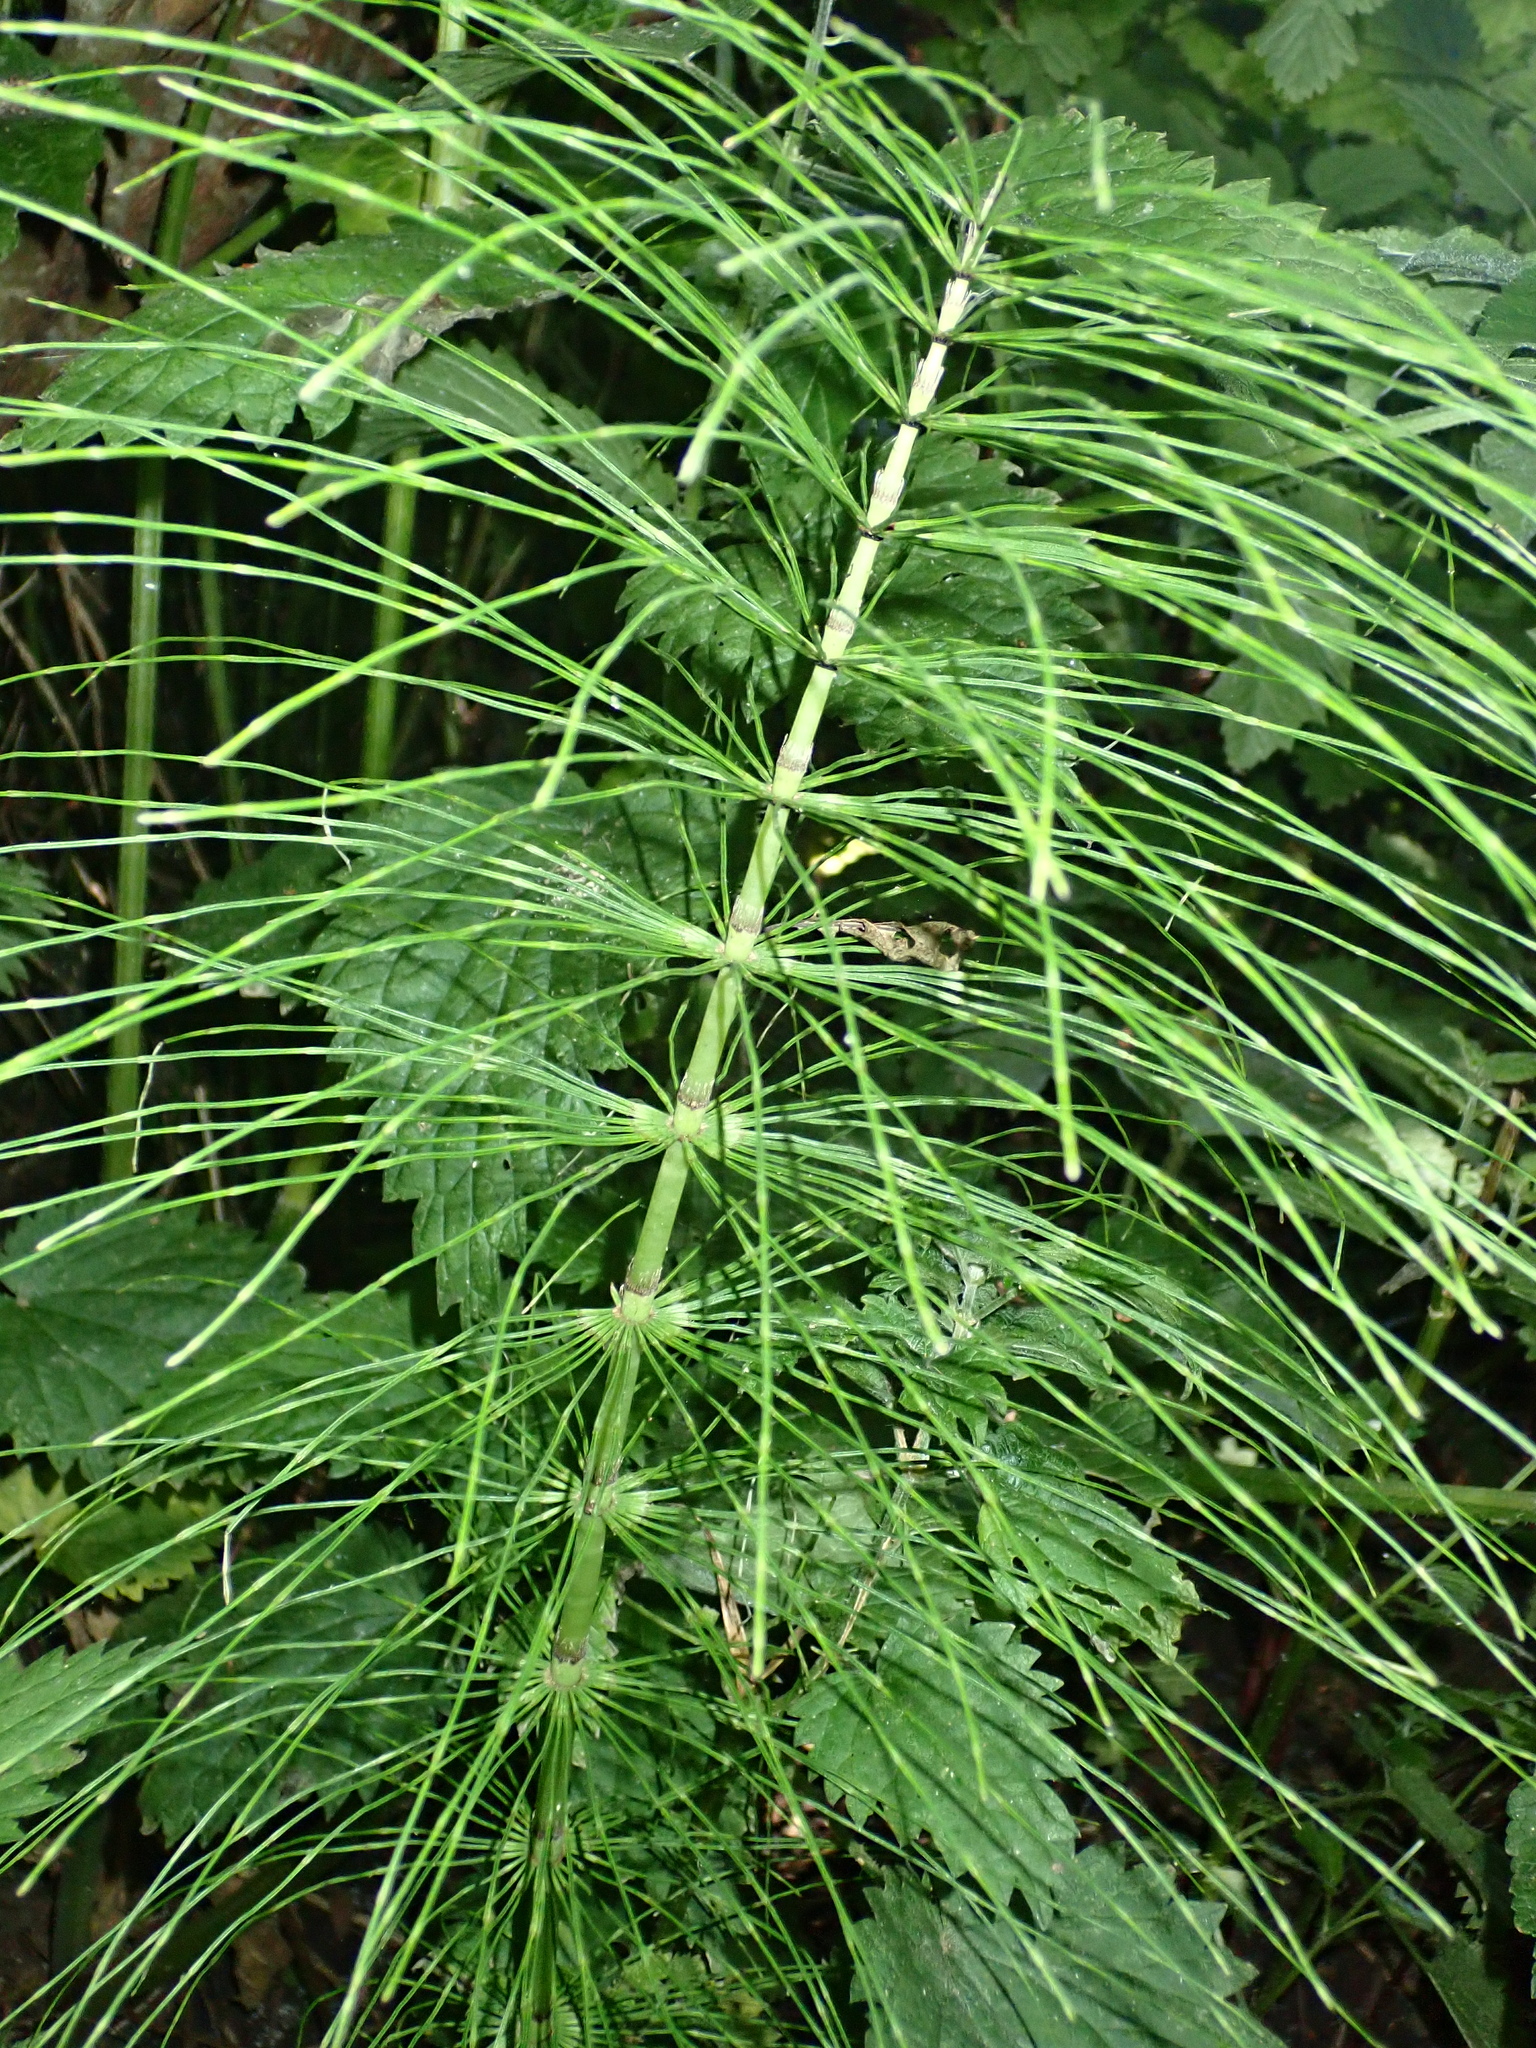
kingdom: Plantae
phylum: Tracheophyta
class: Polypodiopsida
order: Equisetales
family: Equisetaceae
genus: Equisetum
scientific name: Equisetum telmateia
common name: Great horsetail
